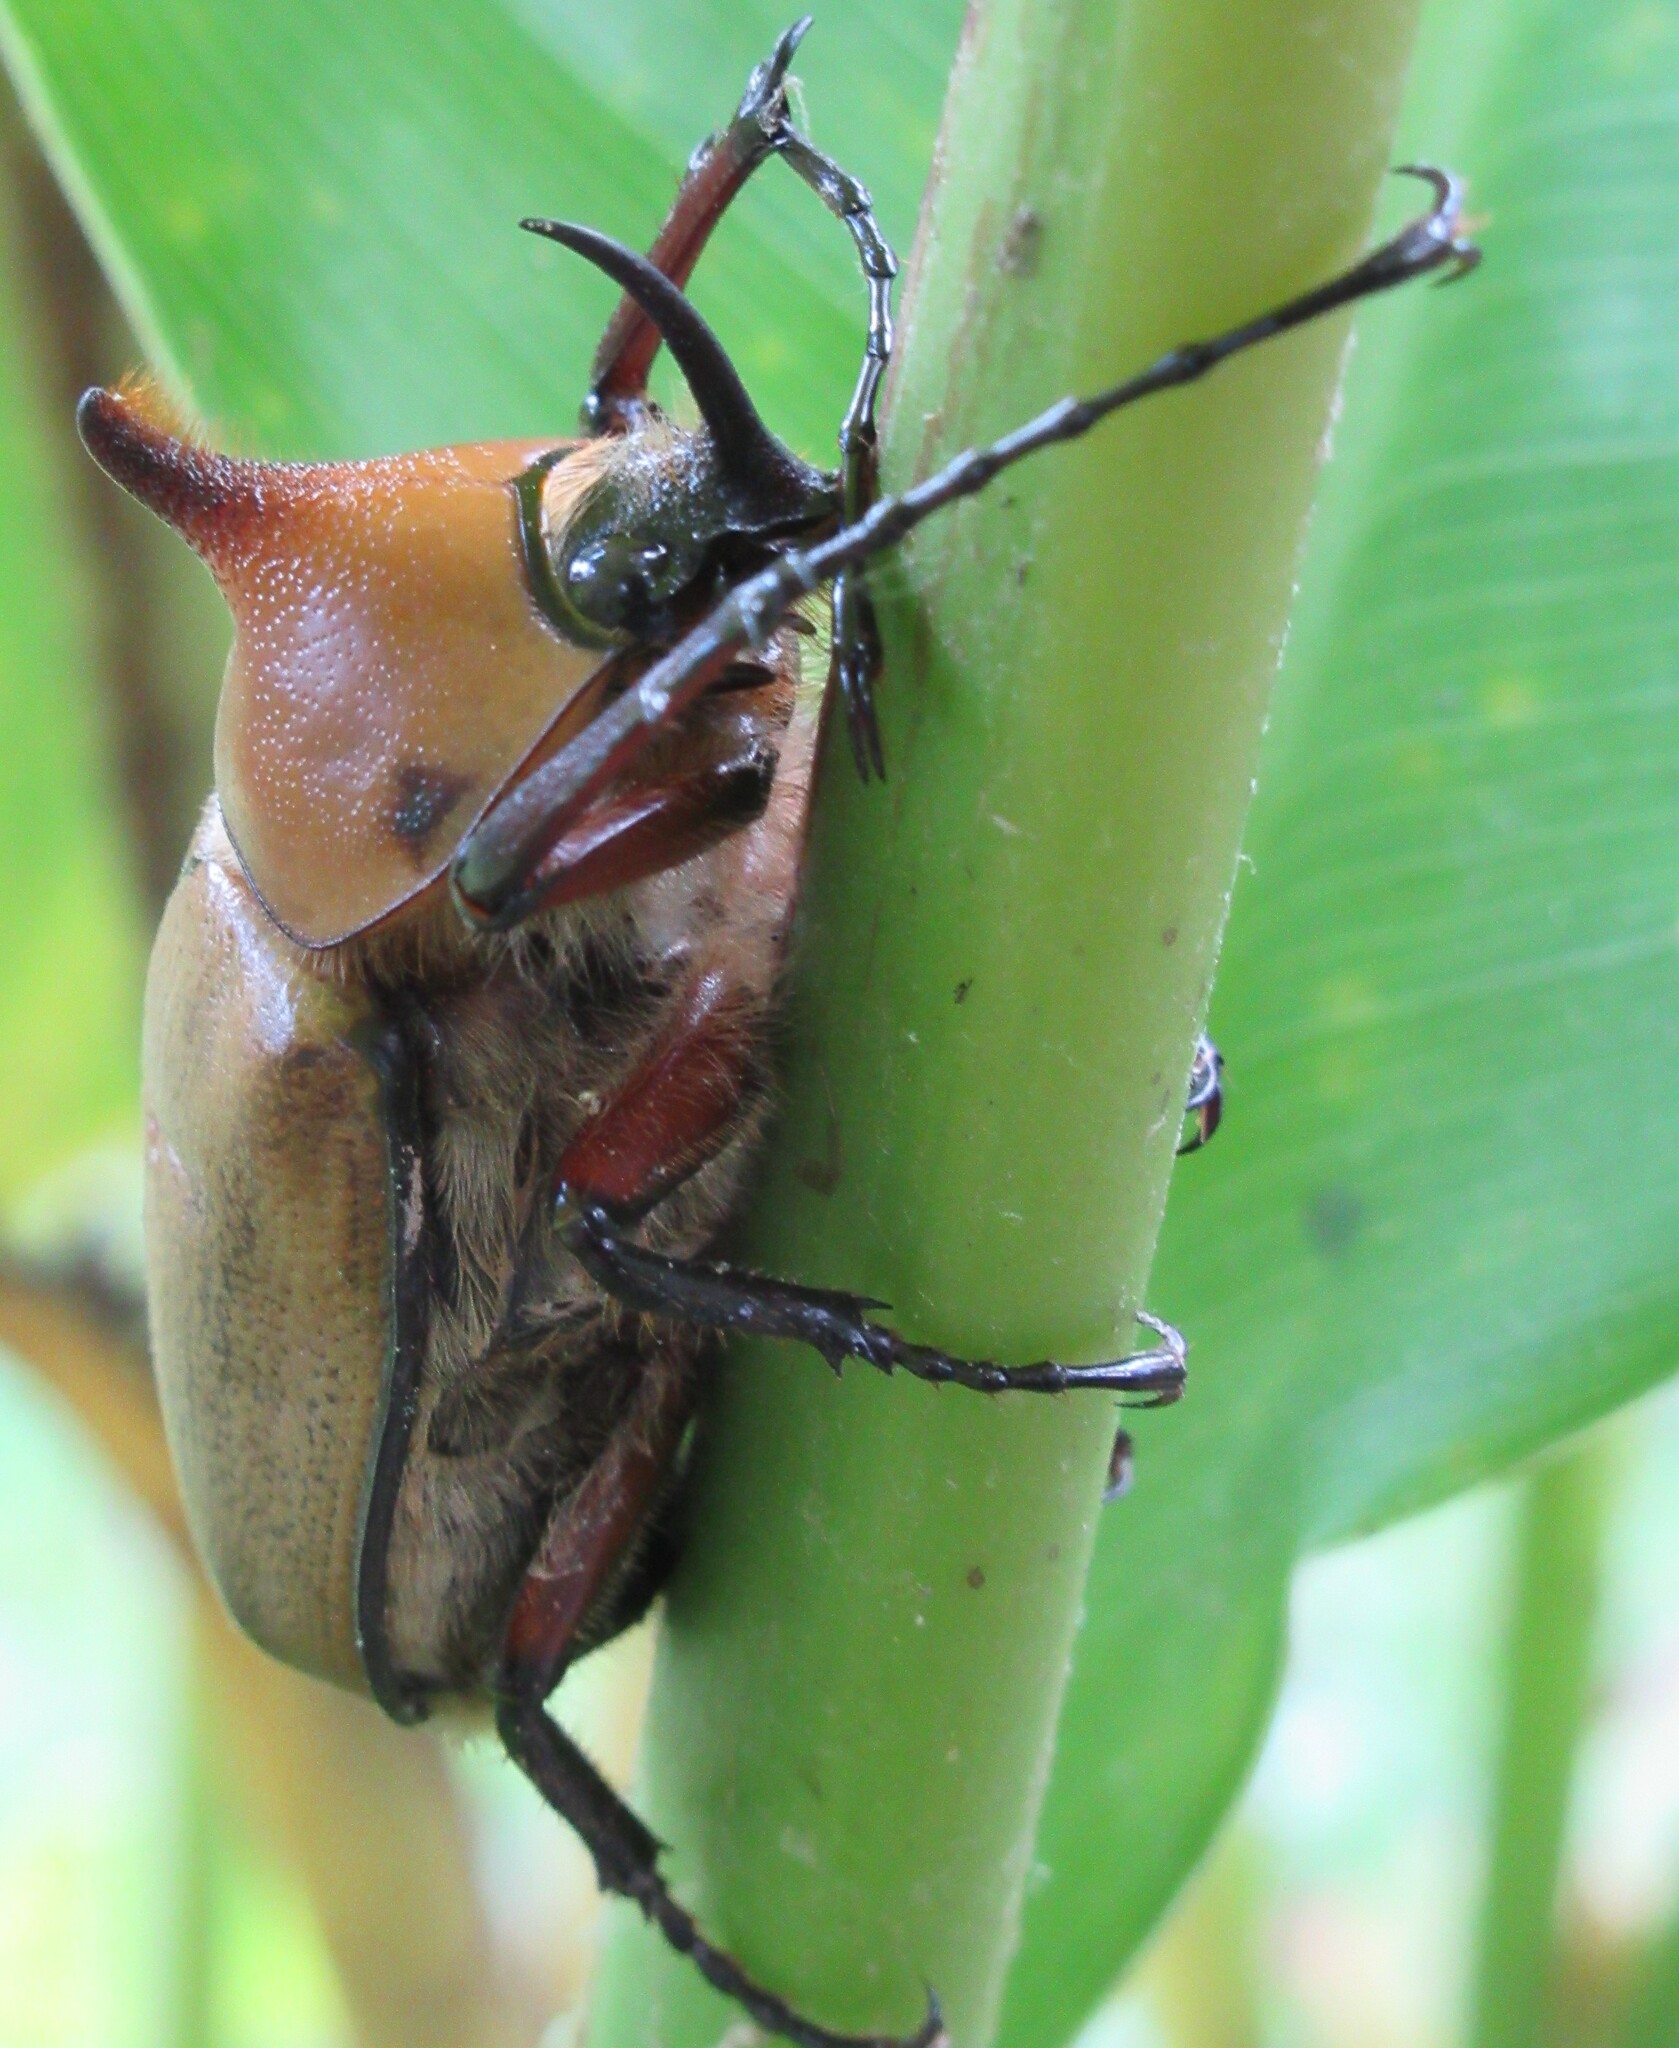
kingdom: Animalia
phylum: Arthropoda
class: Insecta
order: Coleoptera
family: Scarabaeidae
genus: Golofa
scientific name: Golofa eacus
